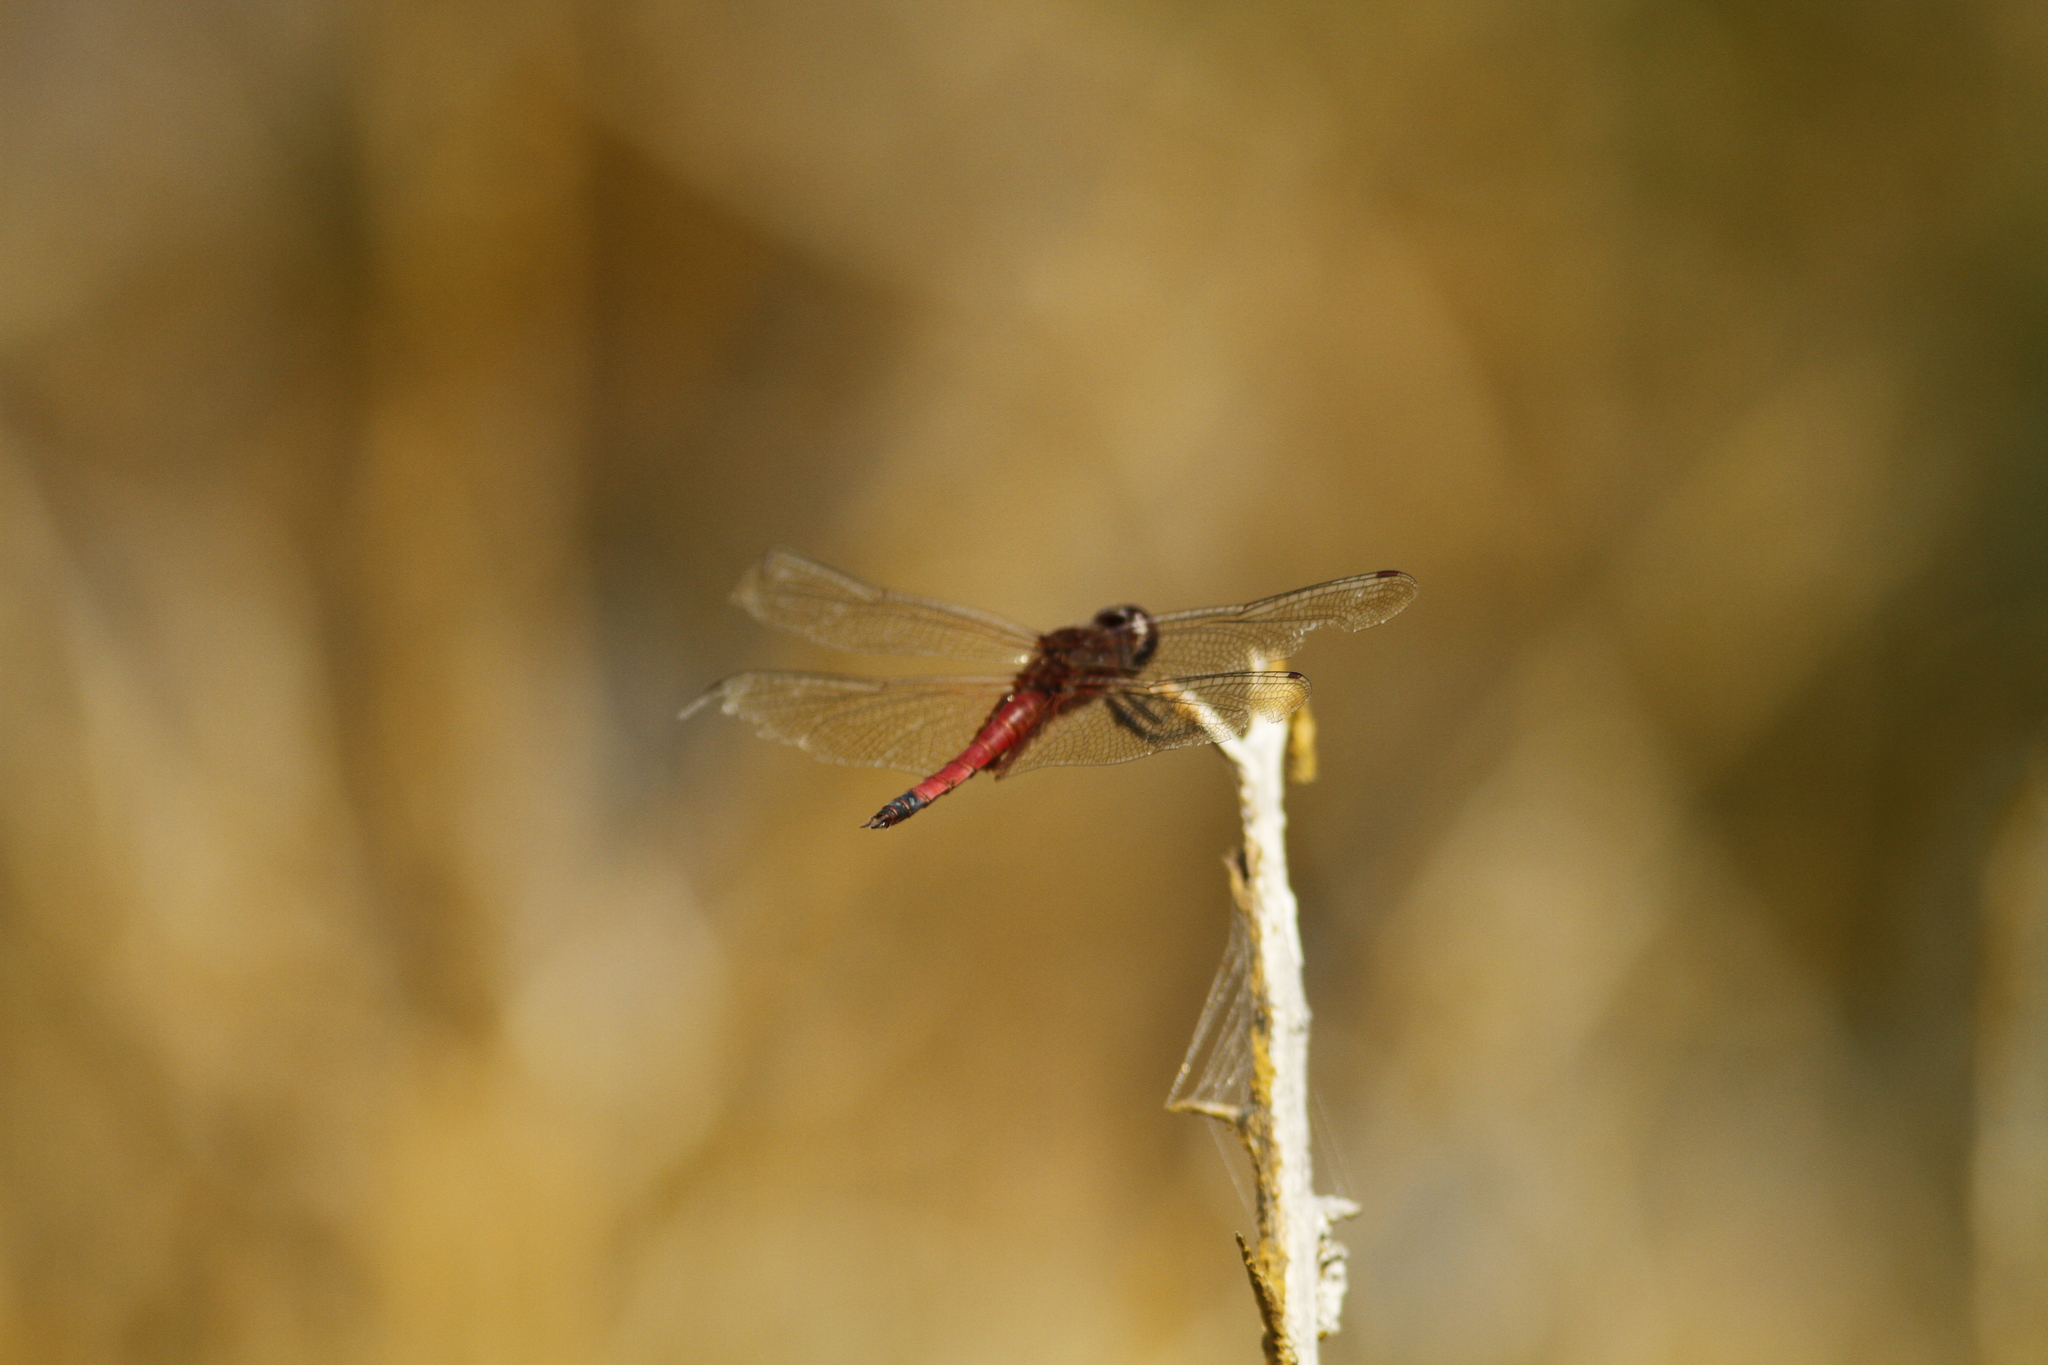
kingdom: Animalia
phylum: Arthropoda
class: Insecta
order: Odonata
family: Libellulidae
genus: Tramea
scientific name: Tramea darwini
